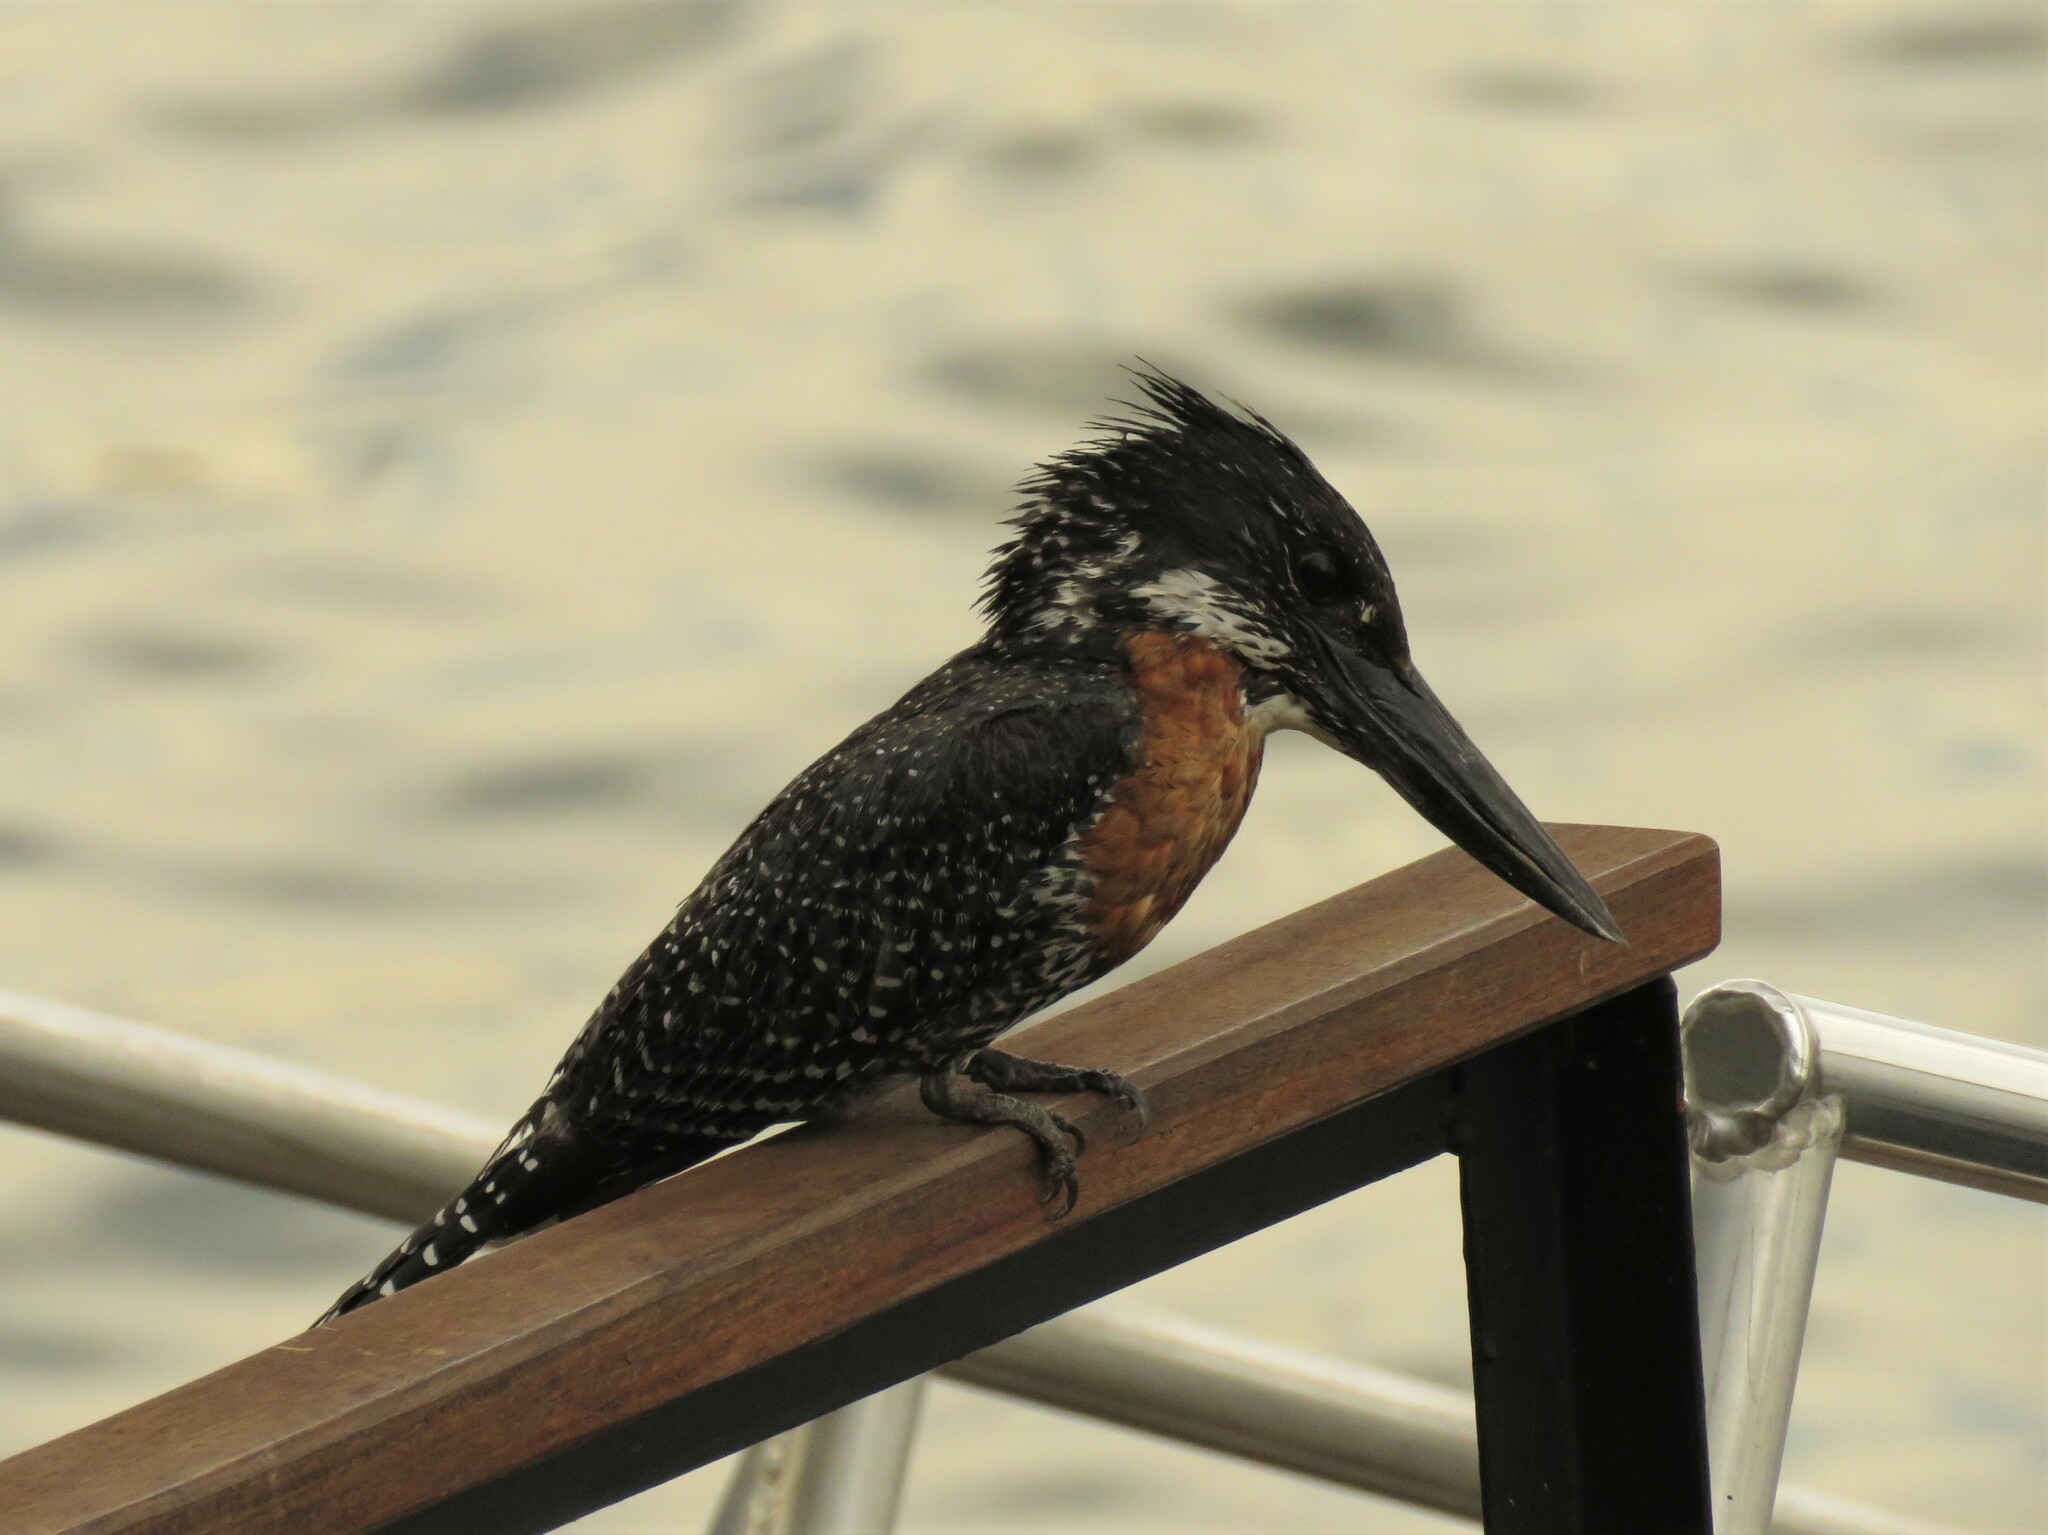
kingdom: Animalia
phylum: Chordata
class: Aves
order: Coraciiformes
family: Alcedinidae
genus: Megaceryle
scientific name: Megaceryle maxima
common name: Giant kingfisher
